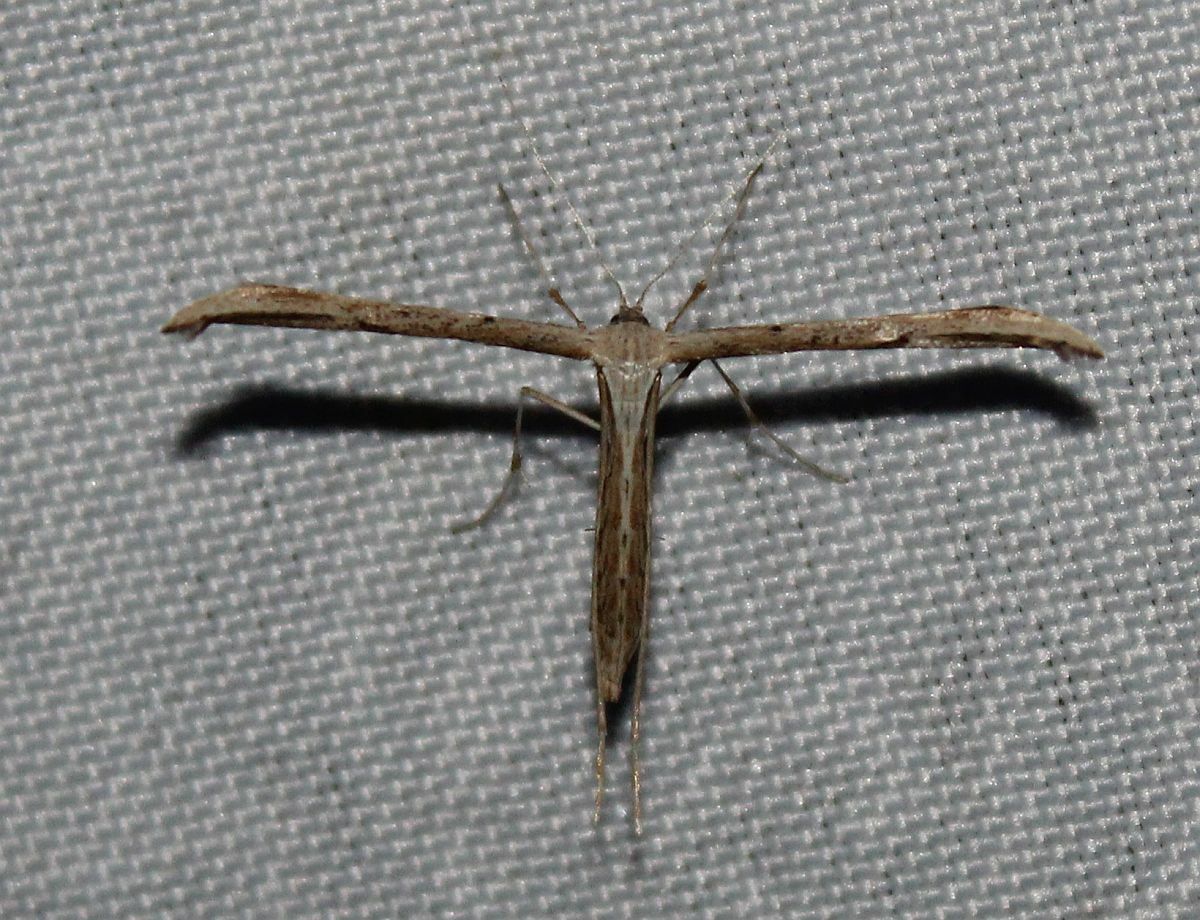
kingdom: Animalia
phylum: Arthropoda
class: Insecta
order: Lepidoptera
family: Pterophoridae
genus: Emmelina
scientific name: Emmelina monodactyla
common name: Common plume
